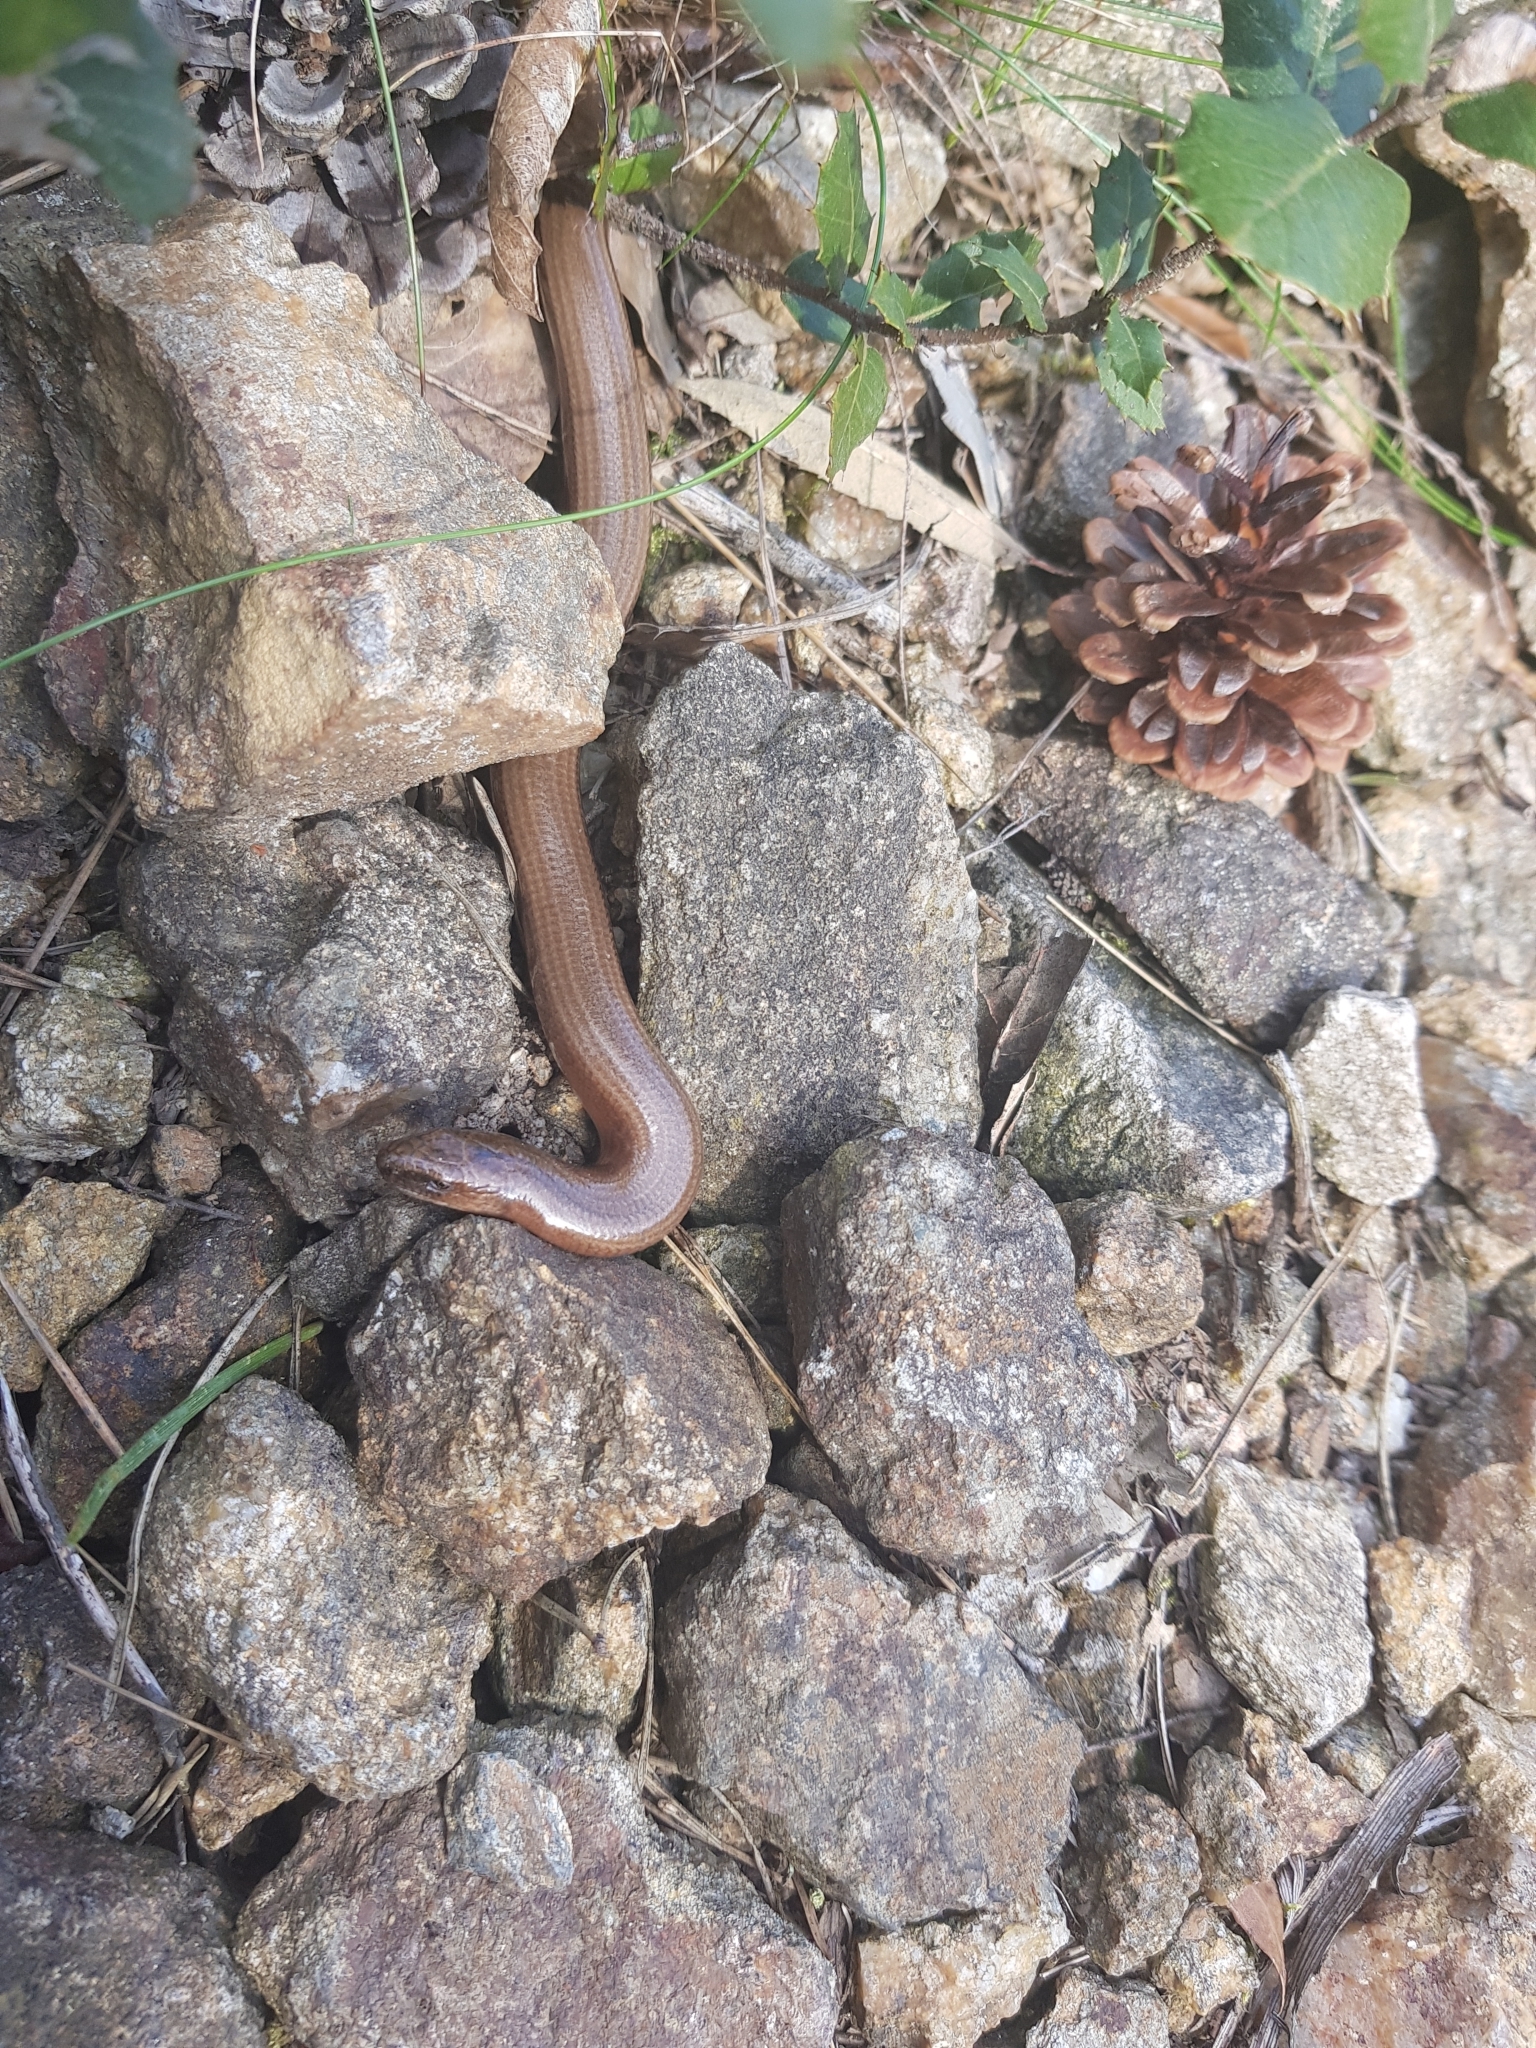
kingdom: Animalia
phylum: Chordata
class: Squamata
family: Anguidae
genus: Anguis
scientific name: Anguis fragilis
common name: Slow worm
